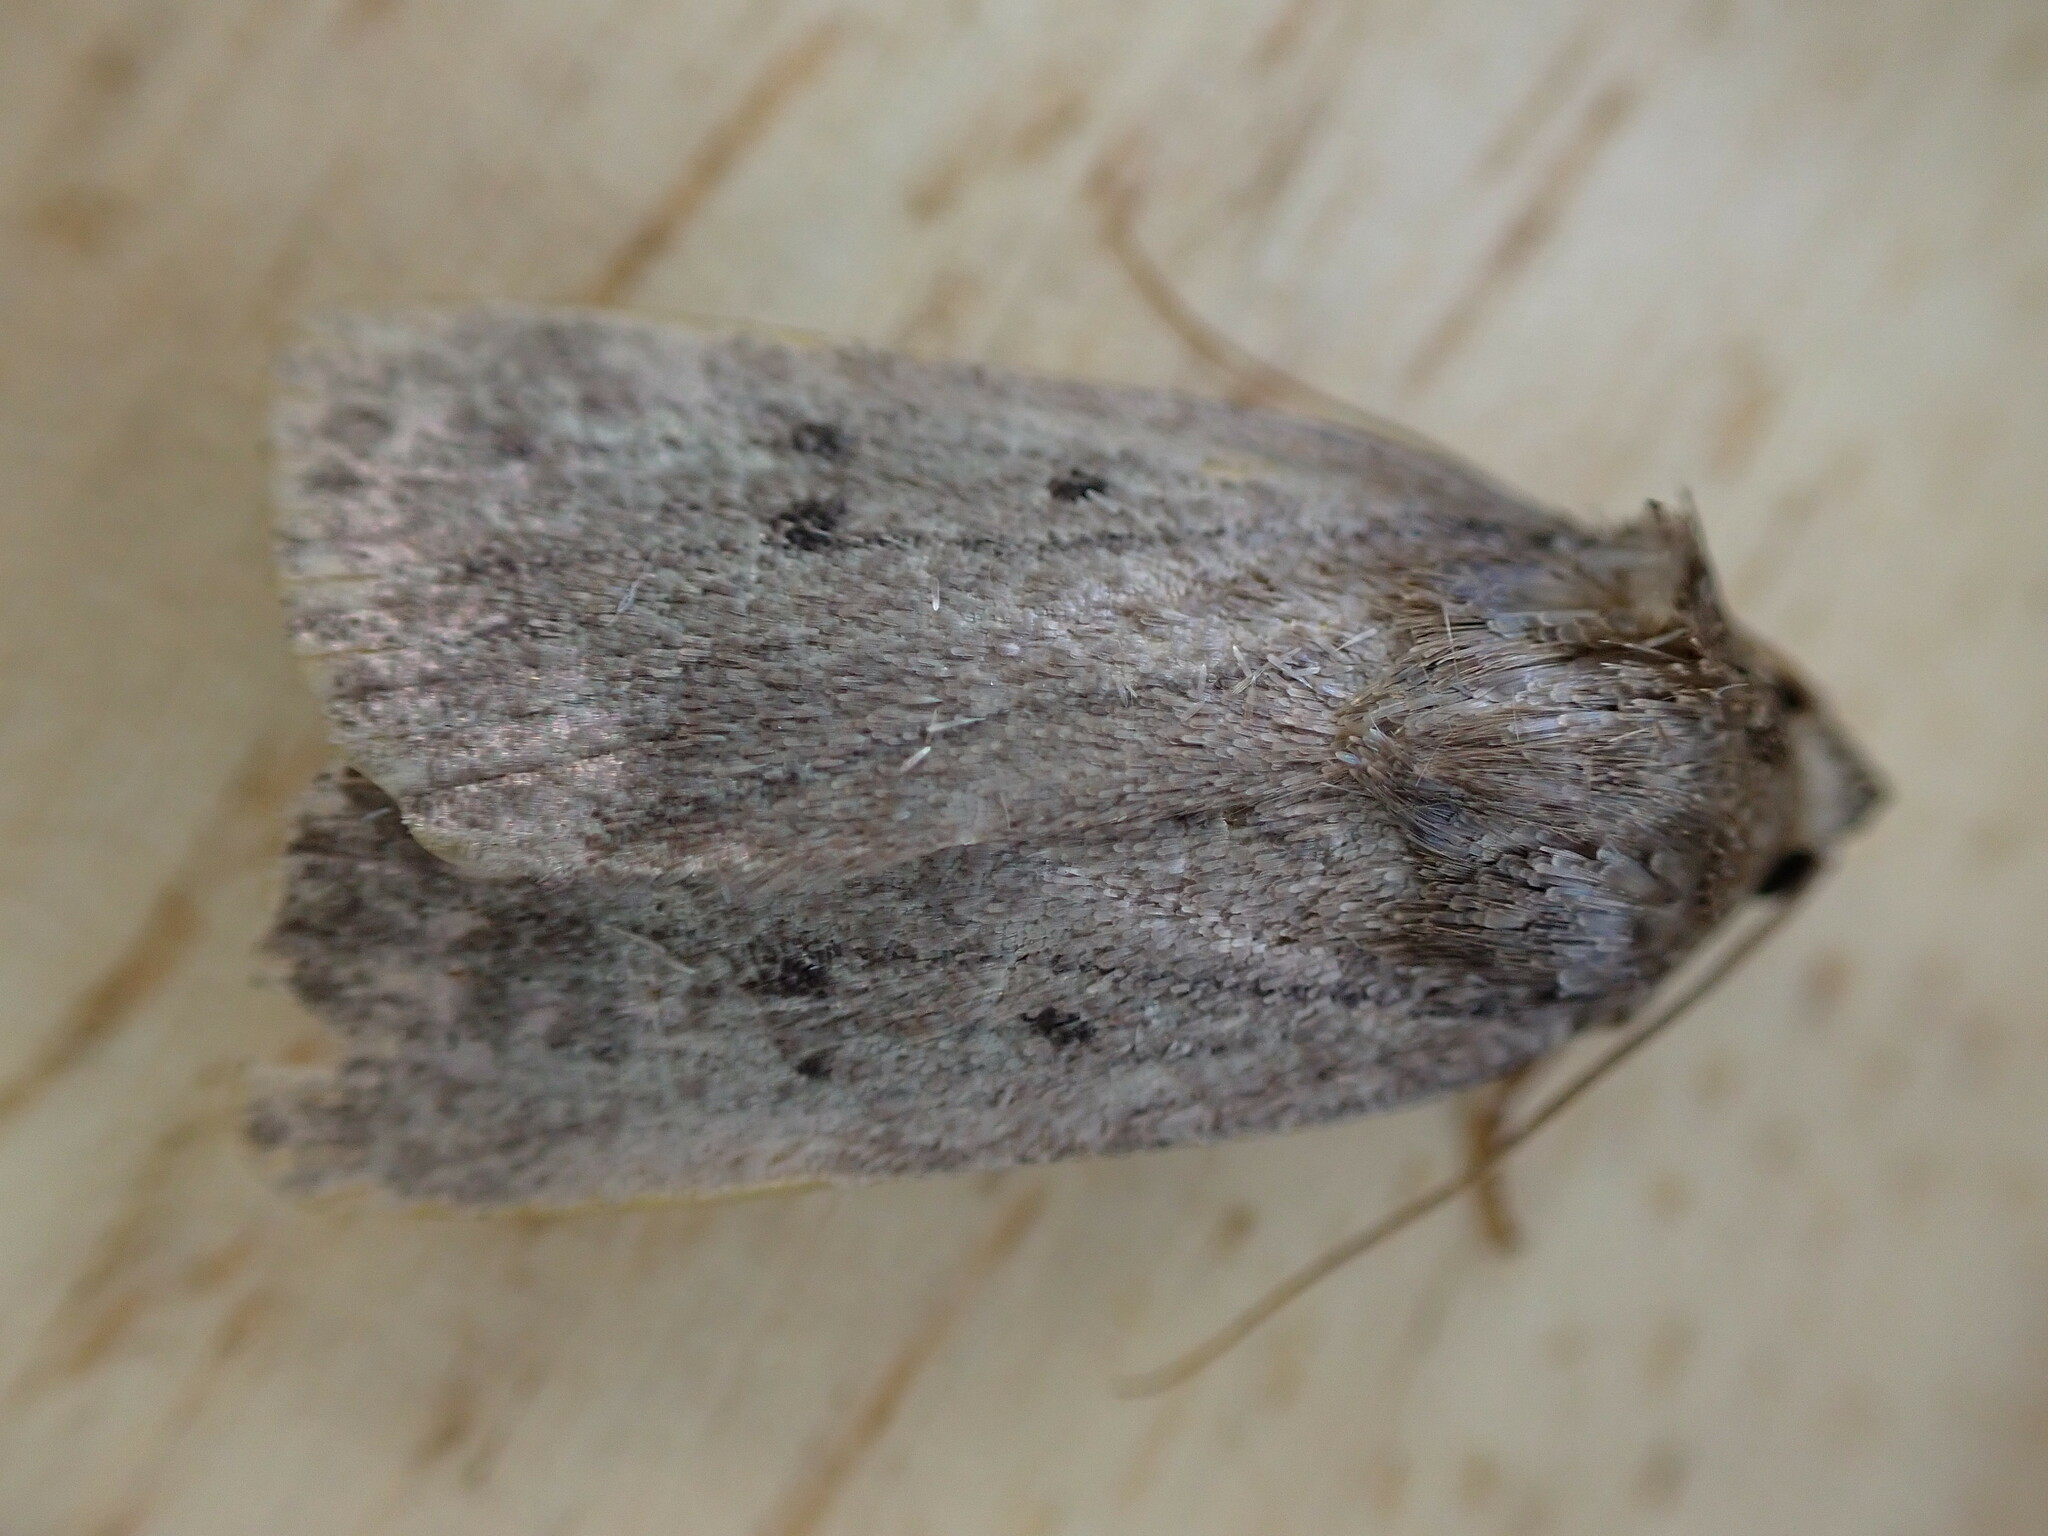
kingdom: Animalia
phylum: Arthropoda
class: Insecta
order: Lepidoptera
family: Noctuidae
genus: Amphipyra
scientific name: Amphipyra tragopoginis
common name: Mouse moth
